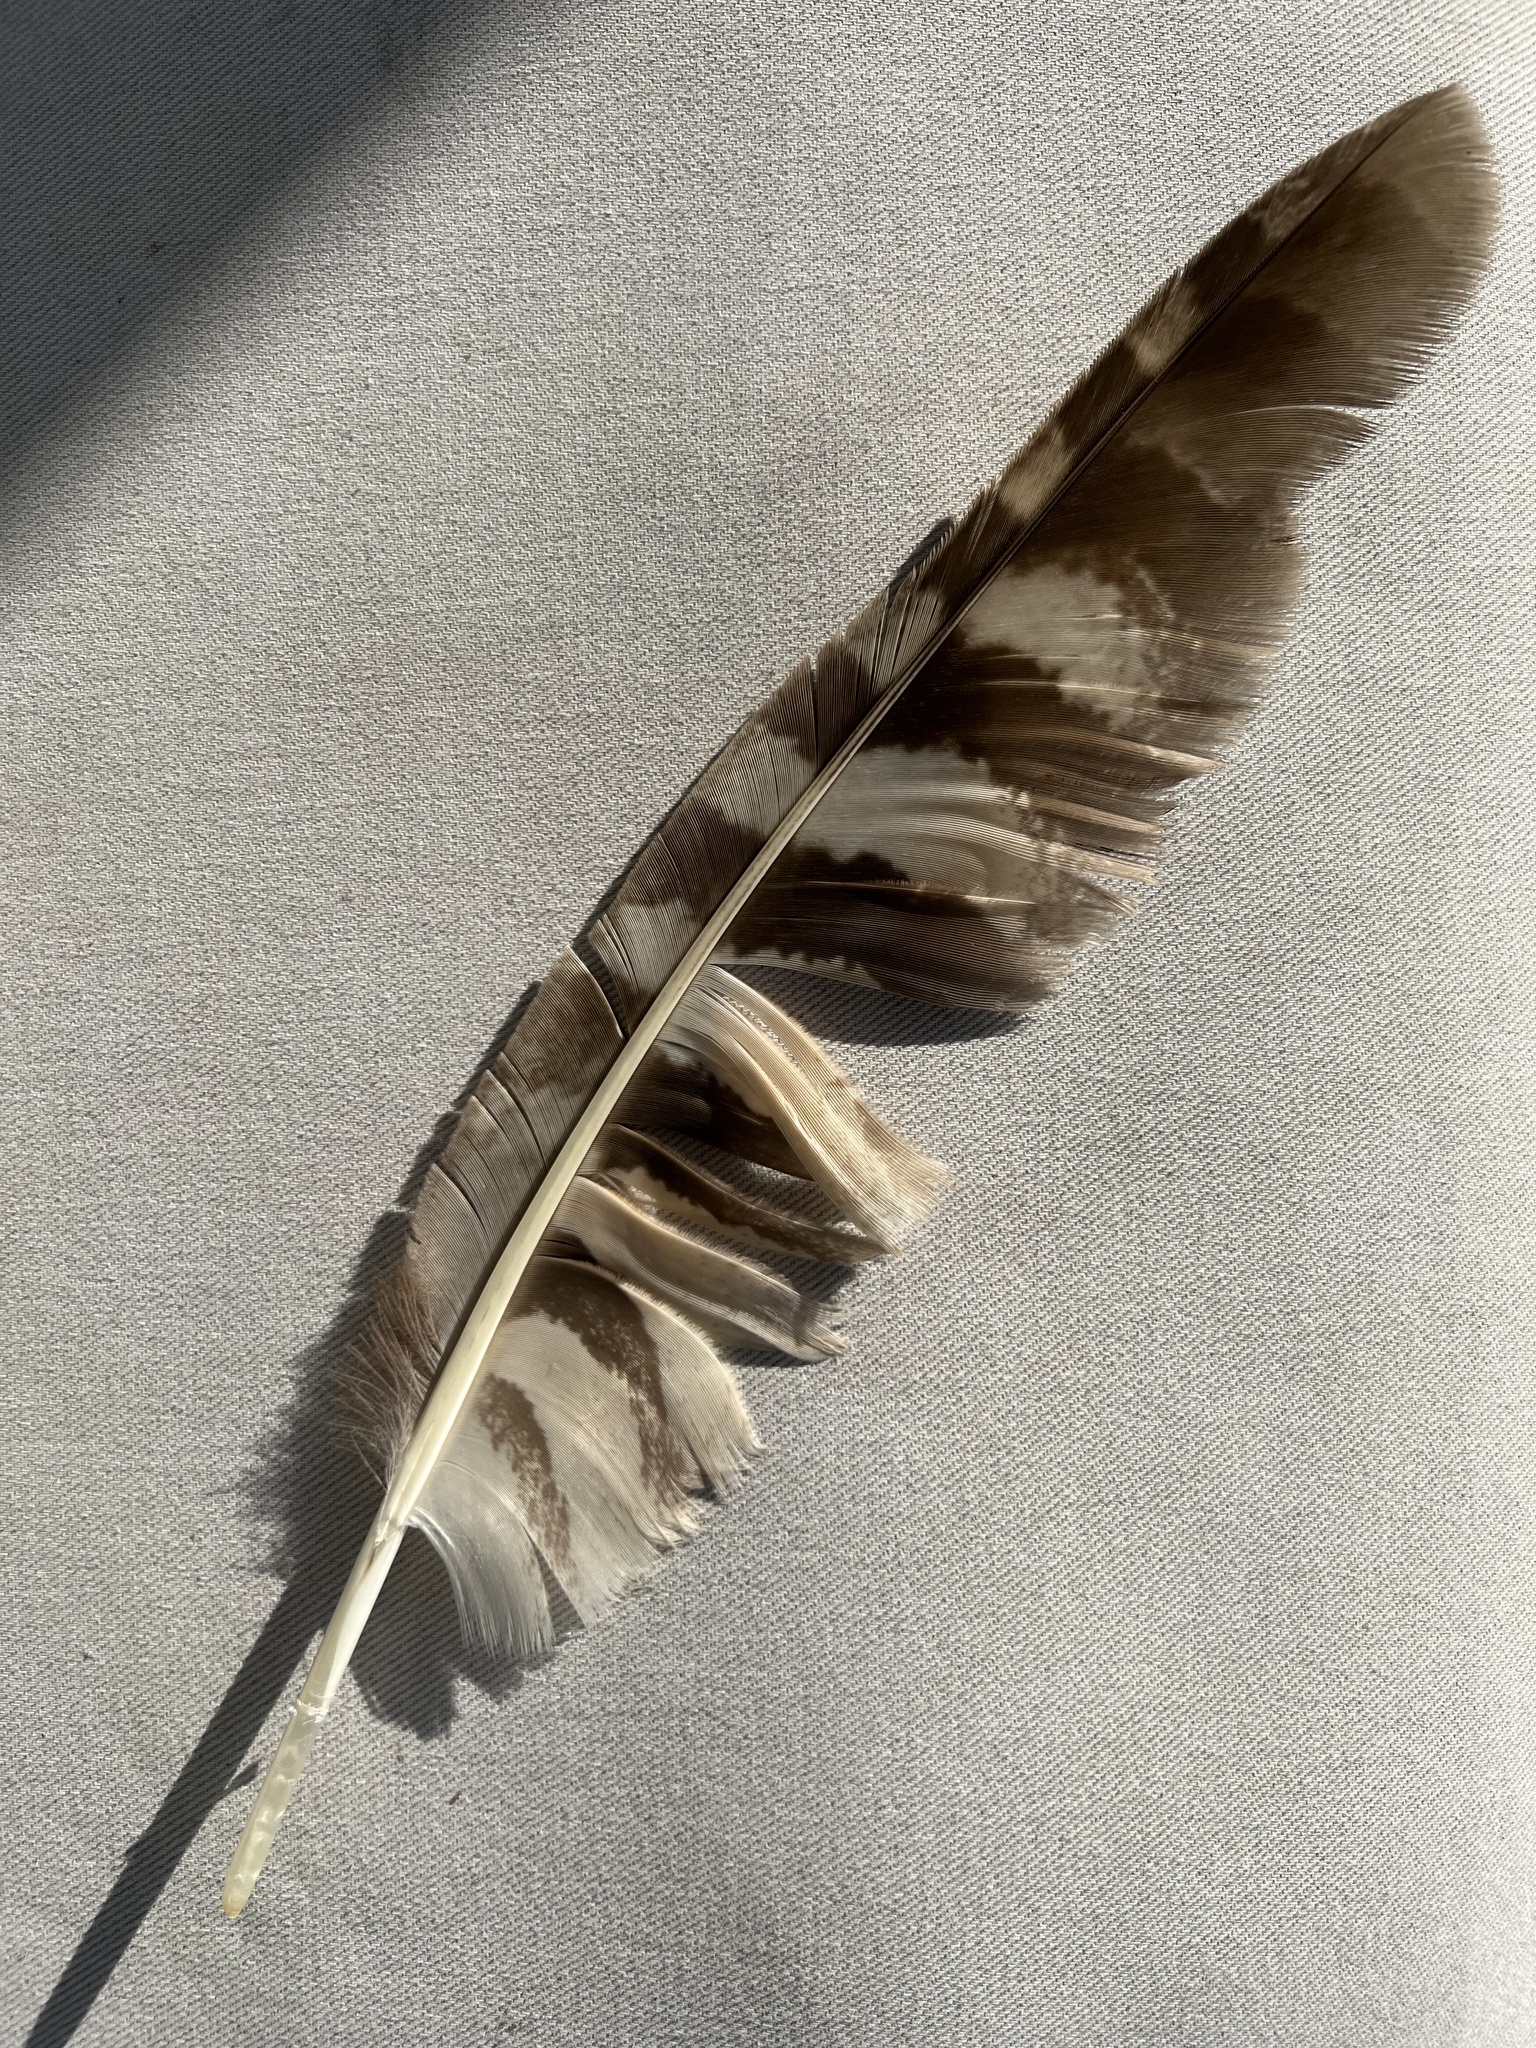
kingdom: Animalia
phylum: Chordata
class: Aves
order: Strigiformes
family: Strigidae
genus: Bubo
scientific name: Bubo virginianus
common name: Great horned owl
